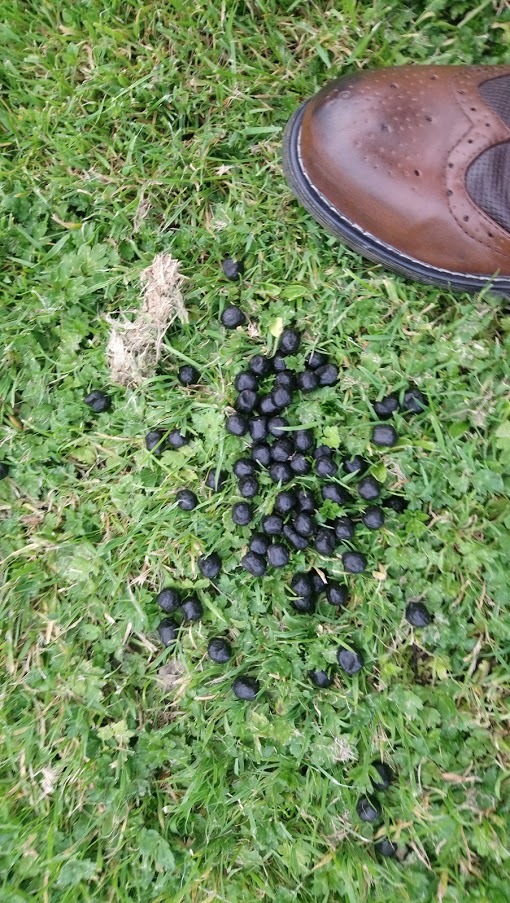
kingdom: Animalia
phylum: Chordata
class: Mammalia
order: Artiodactyla
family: Cervidae
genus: Capreolus
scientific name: Capreolus capreolus
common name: Western roe deer
